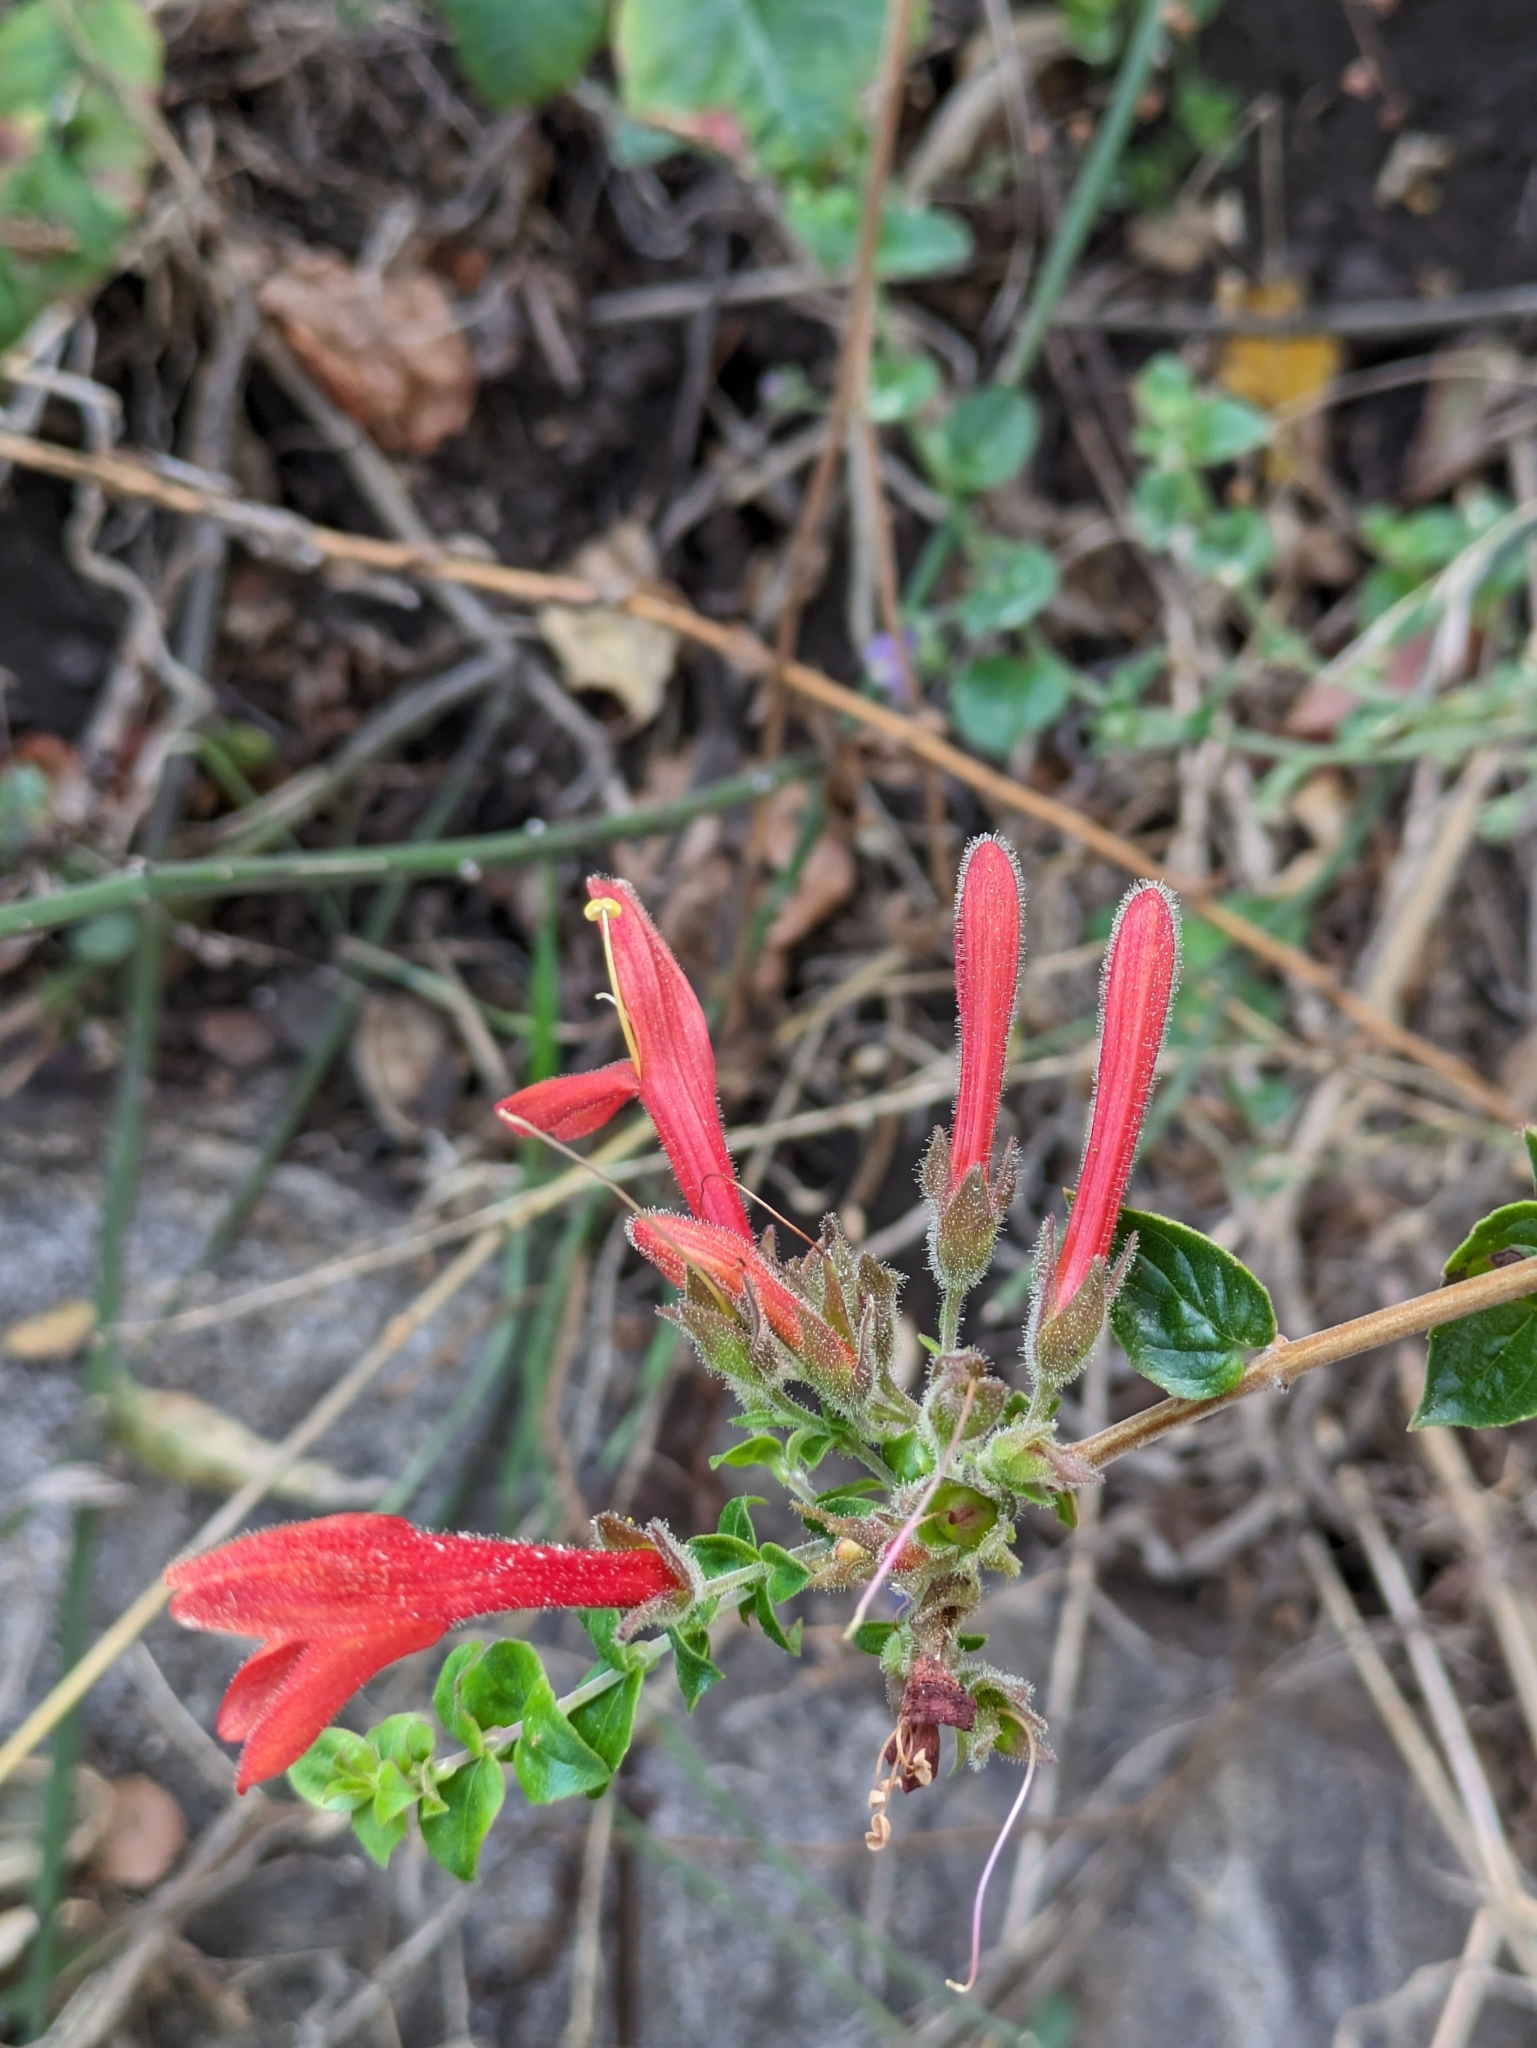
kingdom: Plantae
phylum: Tracheophyta
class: Magnoliopsida
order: Lamiales
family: Plantaginaceae
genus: Keckiella
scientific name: Keckiella cordifolia
